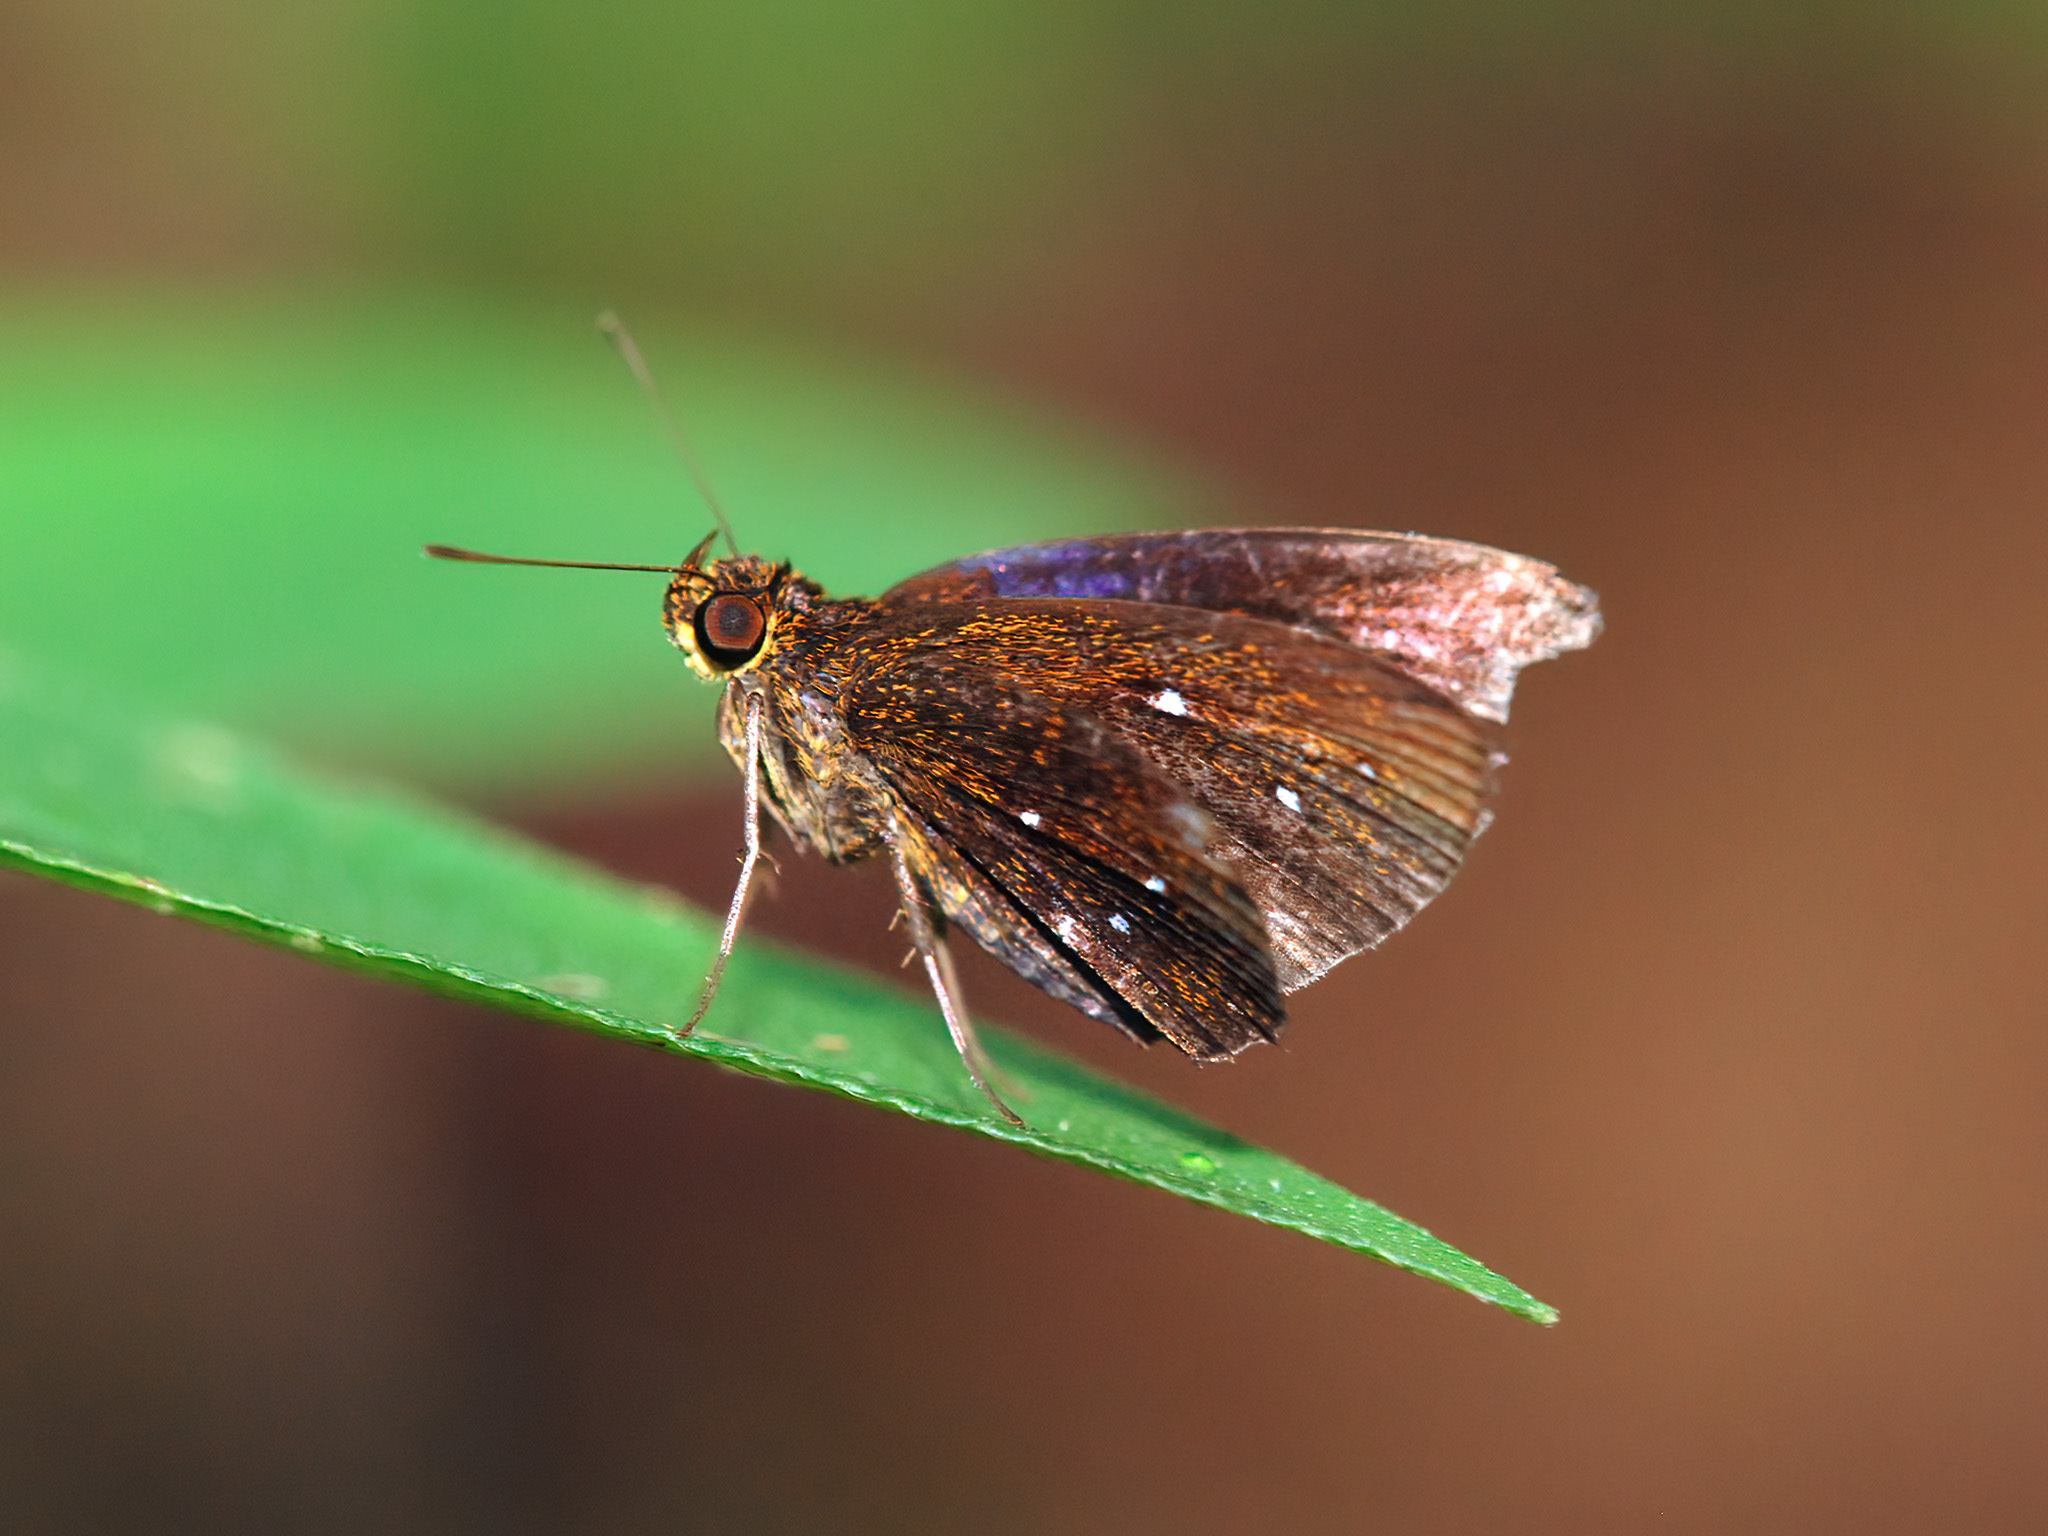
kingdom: Animalia
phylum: Arthropoda
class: Insecta
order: Lepidoptera
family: Hesperiidae
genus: Iambrix
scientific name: Iambrix stellifer
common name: Starry bob
